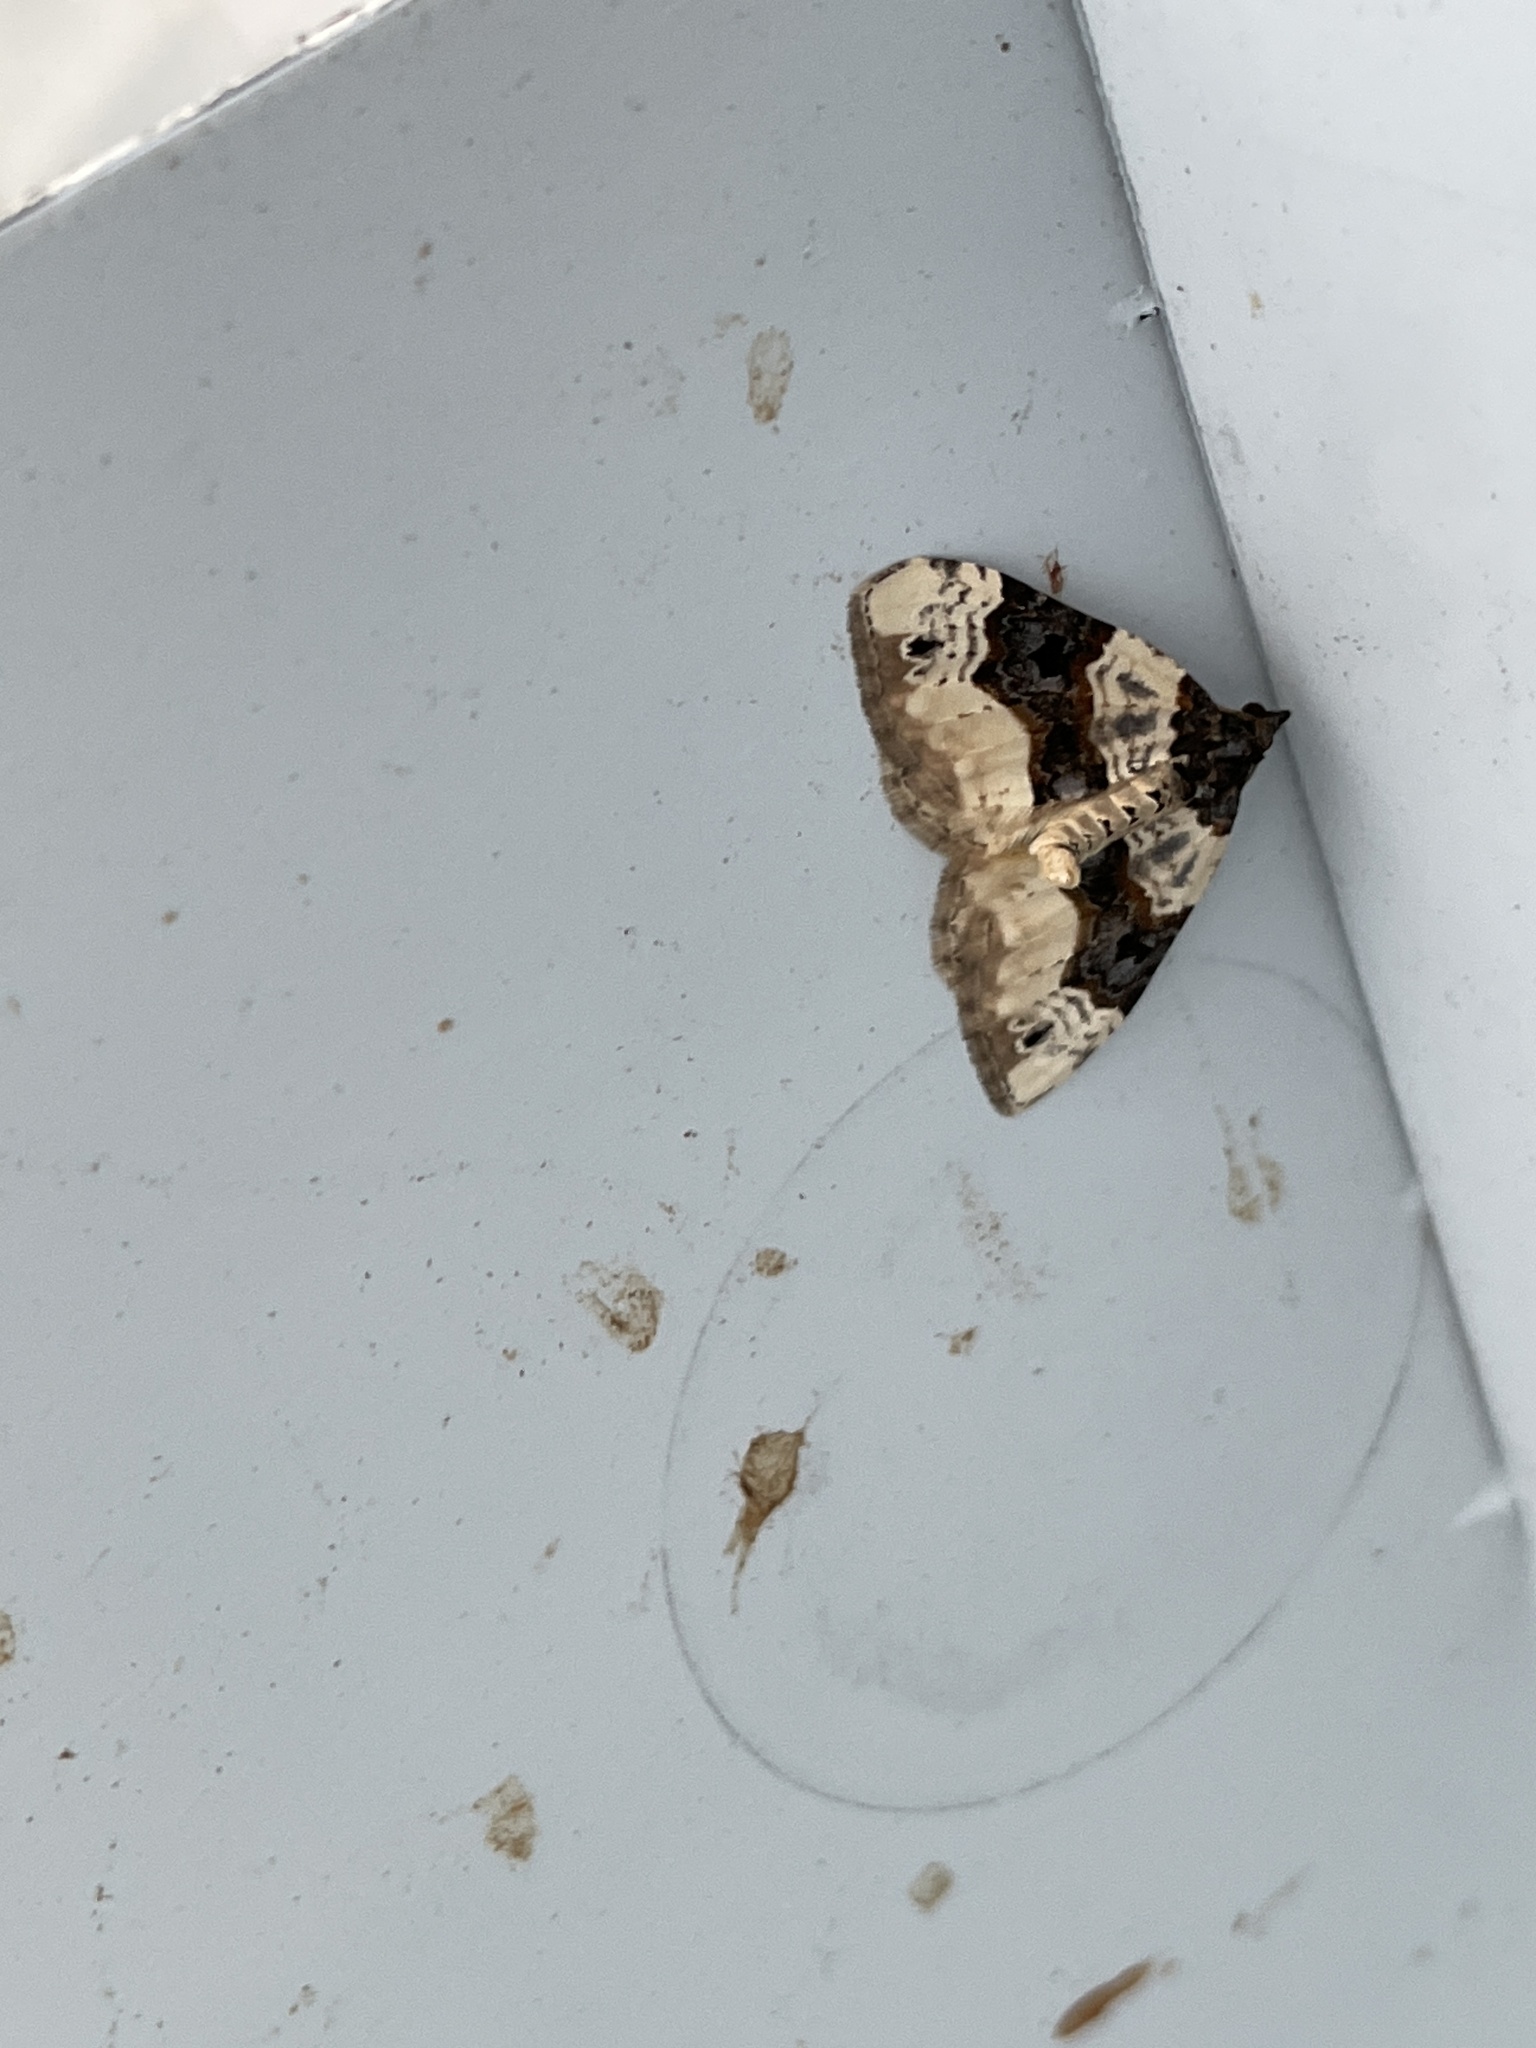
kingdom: Animalia
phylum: Arthropoda
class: Insecta
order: Lepidoptera
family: Geometridae
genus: Cosmorhoe
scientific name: Cosmorhoe ocellata
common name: Purple bar
